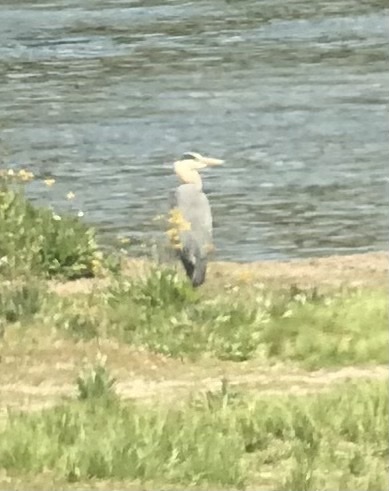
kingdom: Animalia
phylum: Chordata
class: Aves
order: Pelecaniformes
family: Ardeidae
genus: Ardea
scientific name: Ardea herodias
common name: Great blue heron
